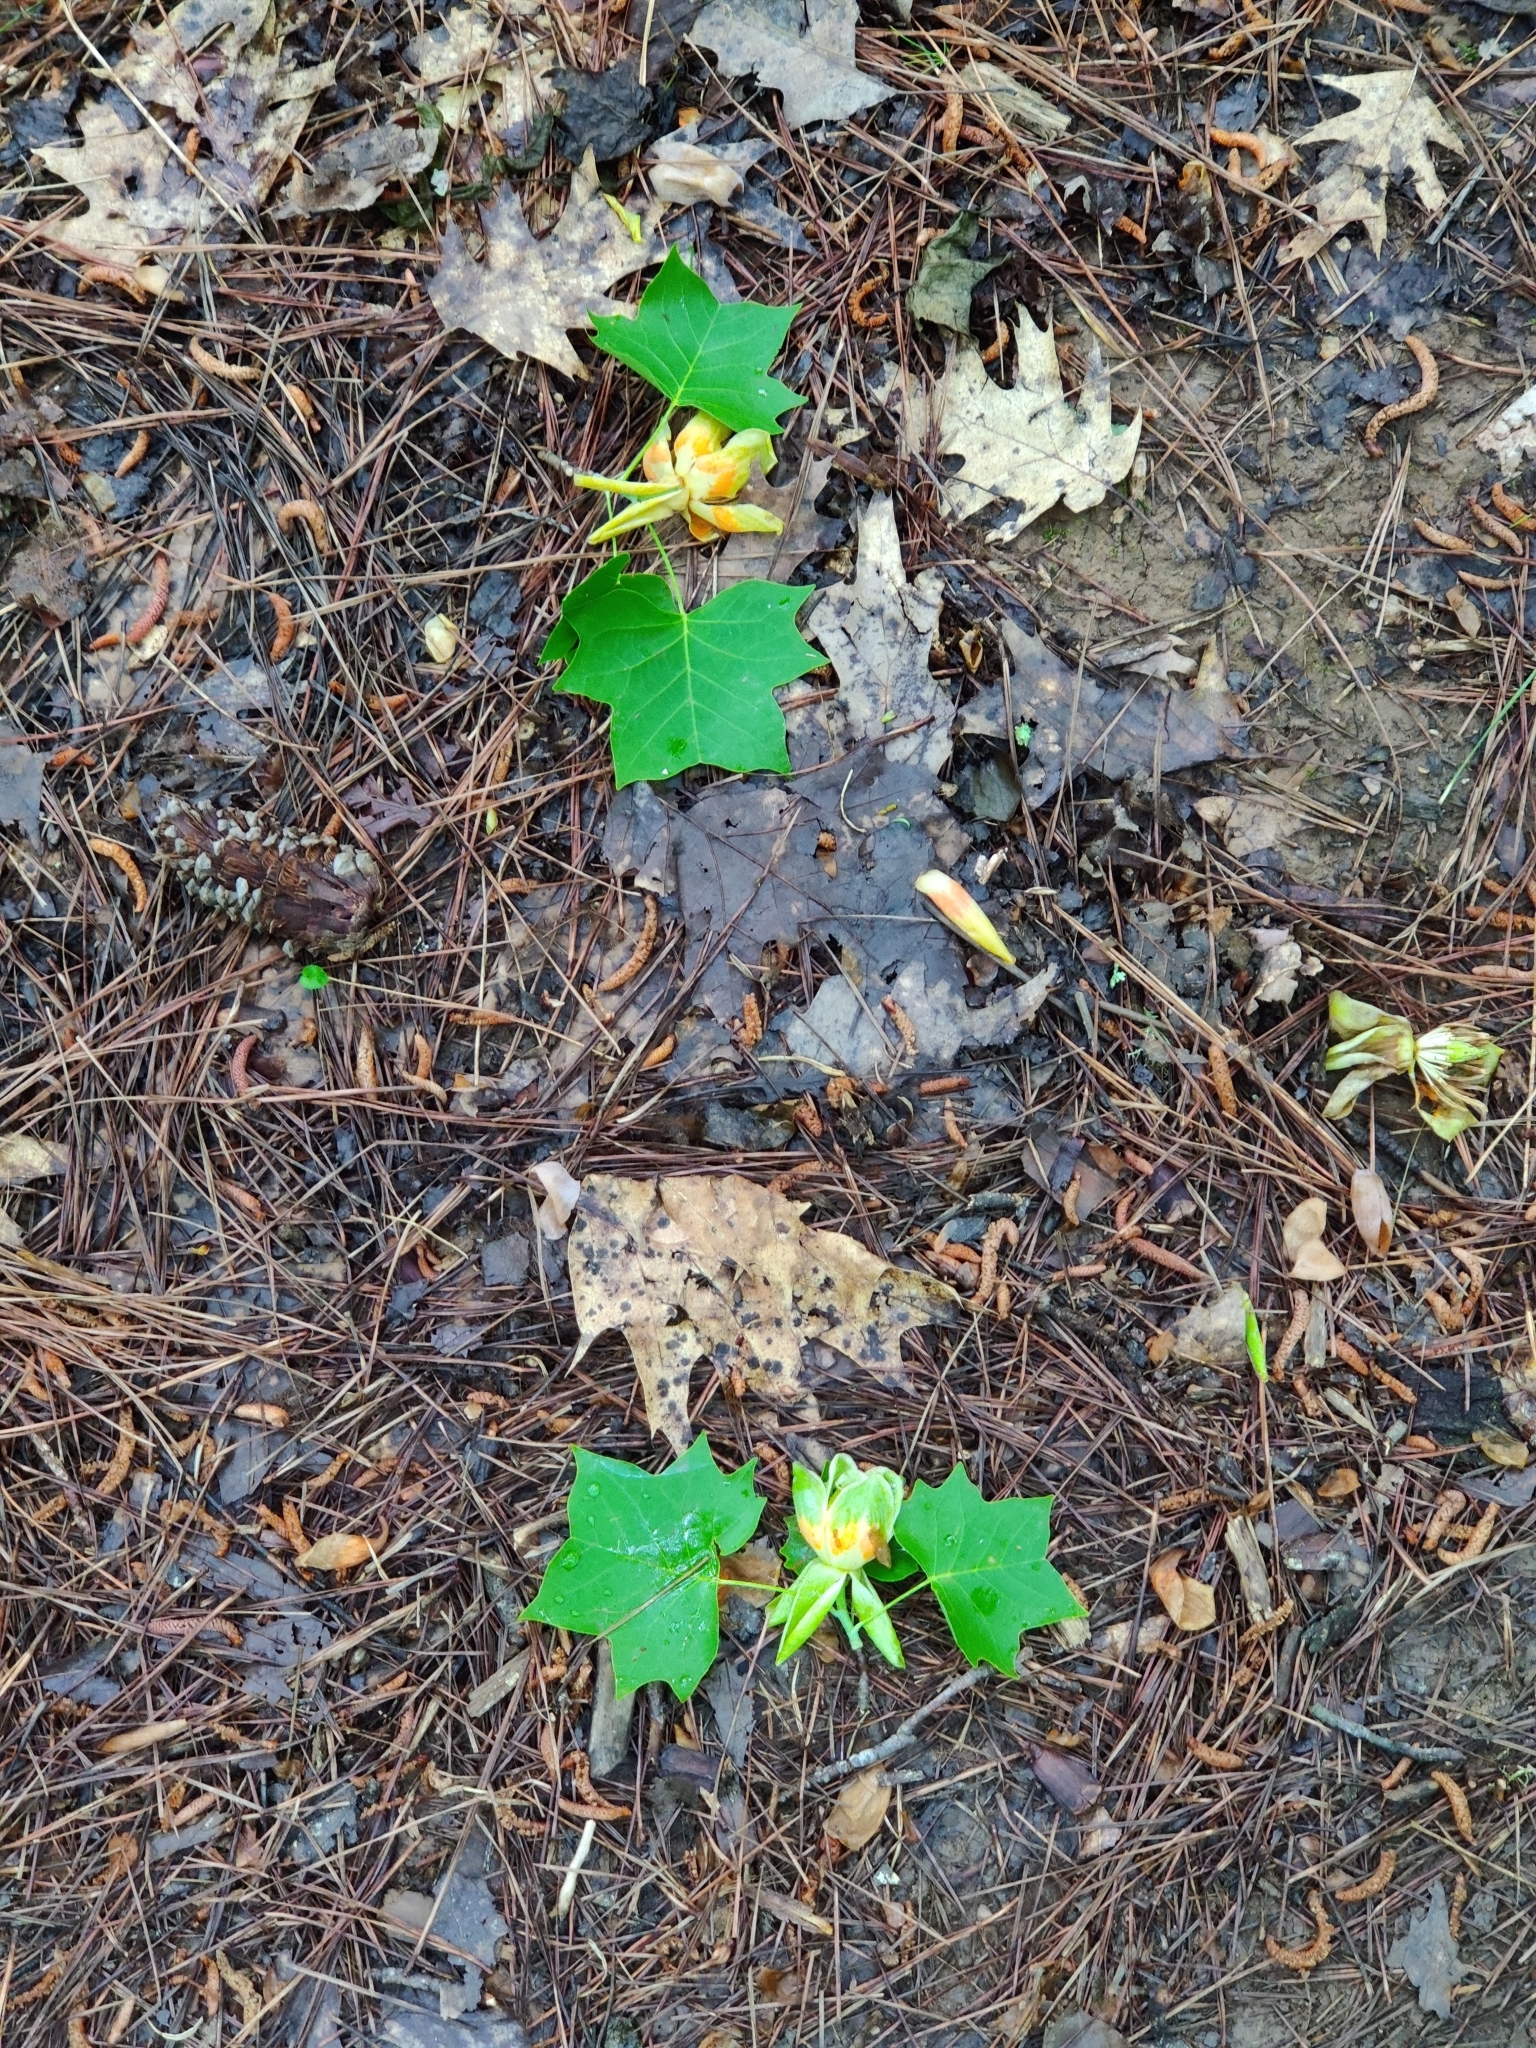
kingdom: Plantae
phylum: Tracheophyta
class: Magnoliopsida
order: Magnoliales
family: Magnoliaceae
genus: Liriodendron
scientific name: Liriodendron tulipifera
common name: Tulip tree
